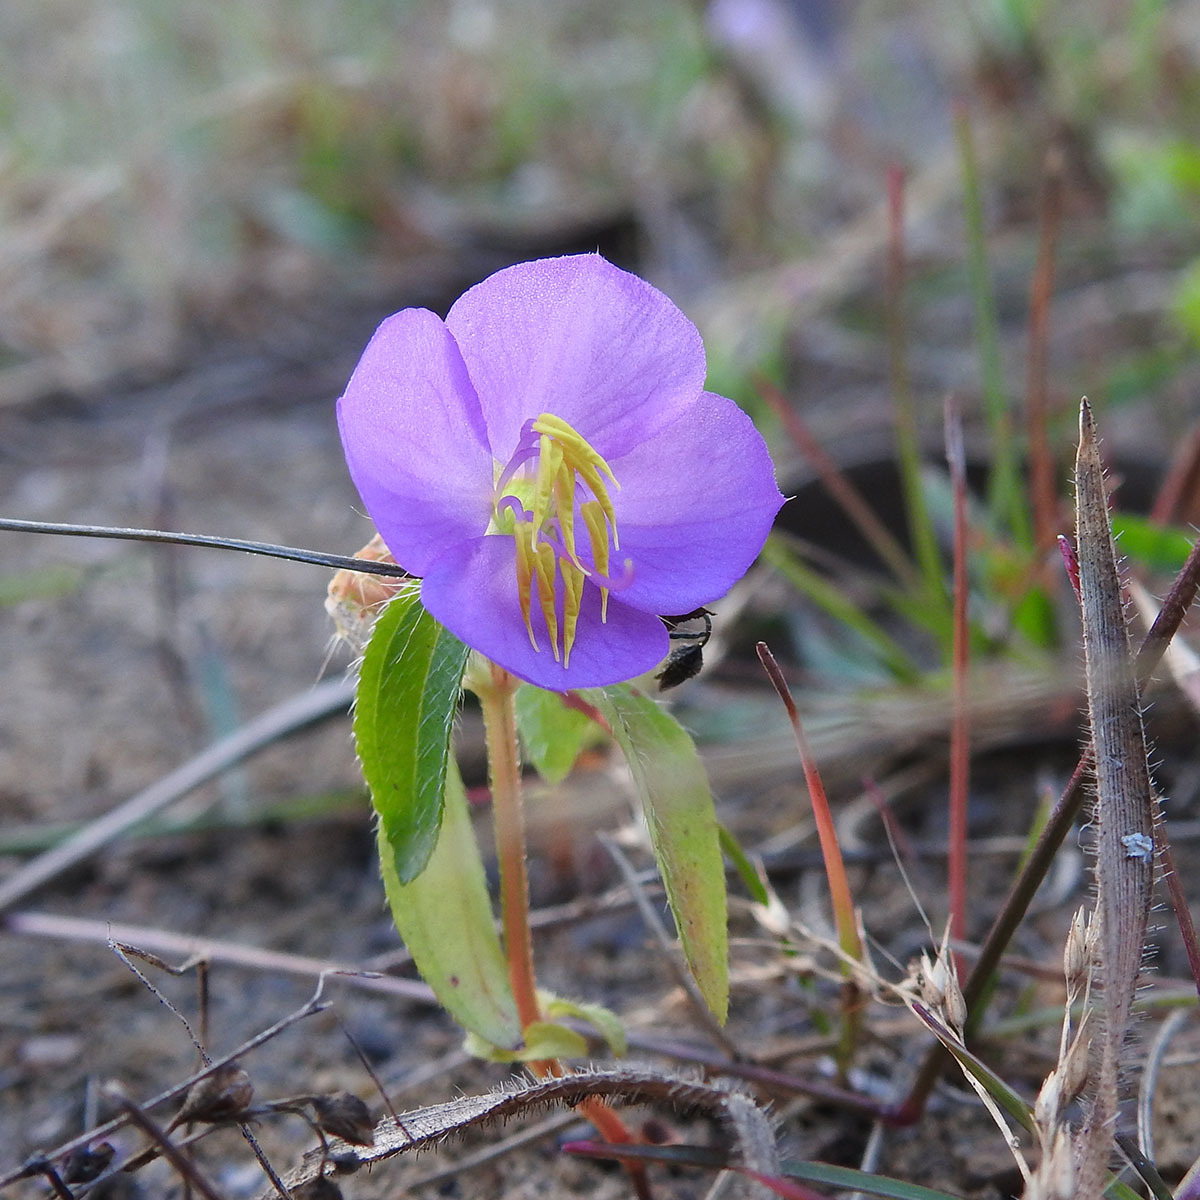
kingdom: Plantae
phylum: Tracheophyta
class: Magnoliopsida
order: Myrtales
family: Melastomataceae
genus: Osbeckia
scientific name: Osbeckia zeylanica
